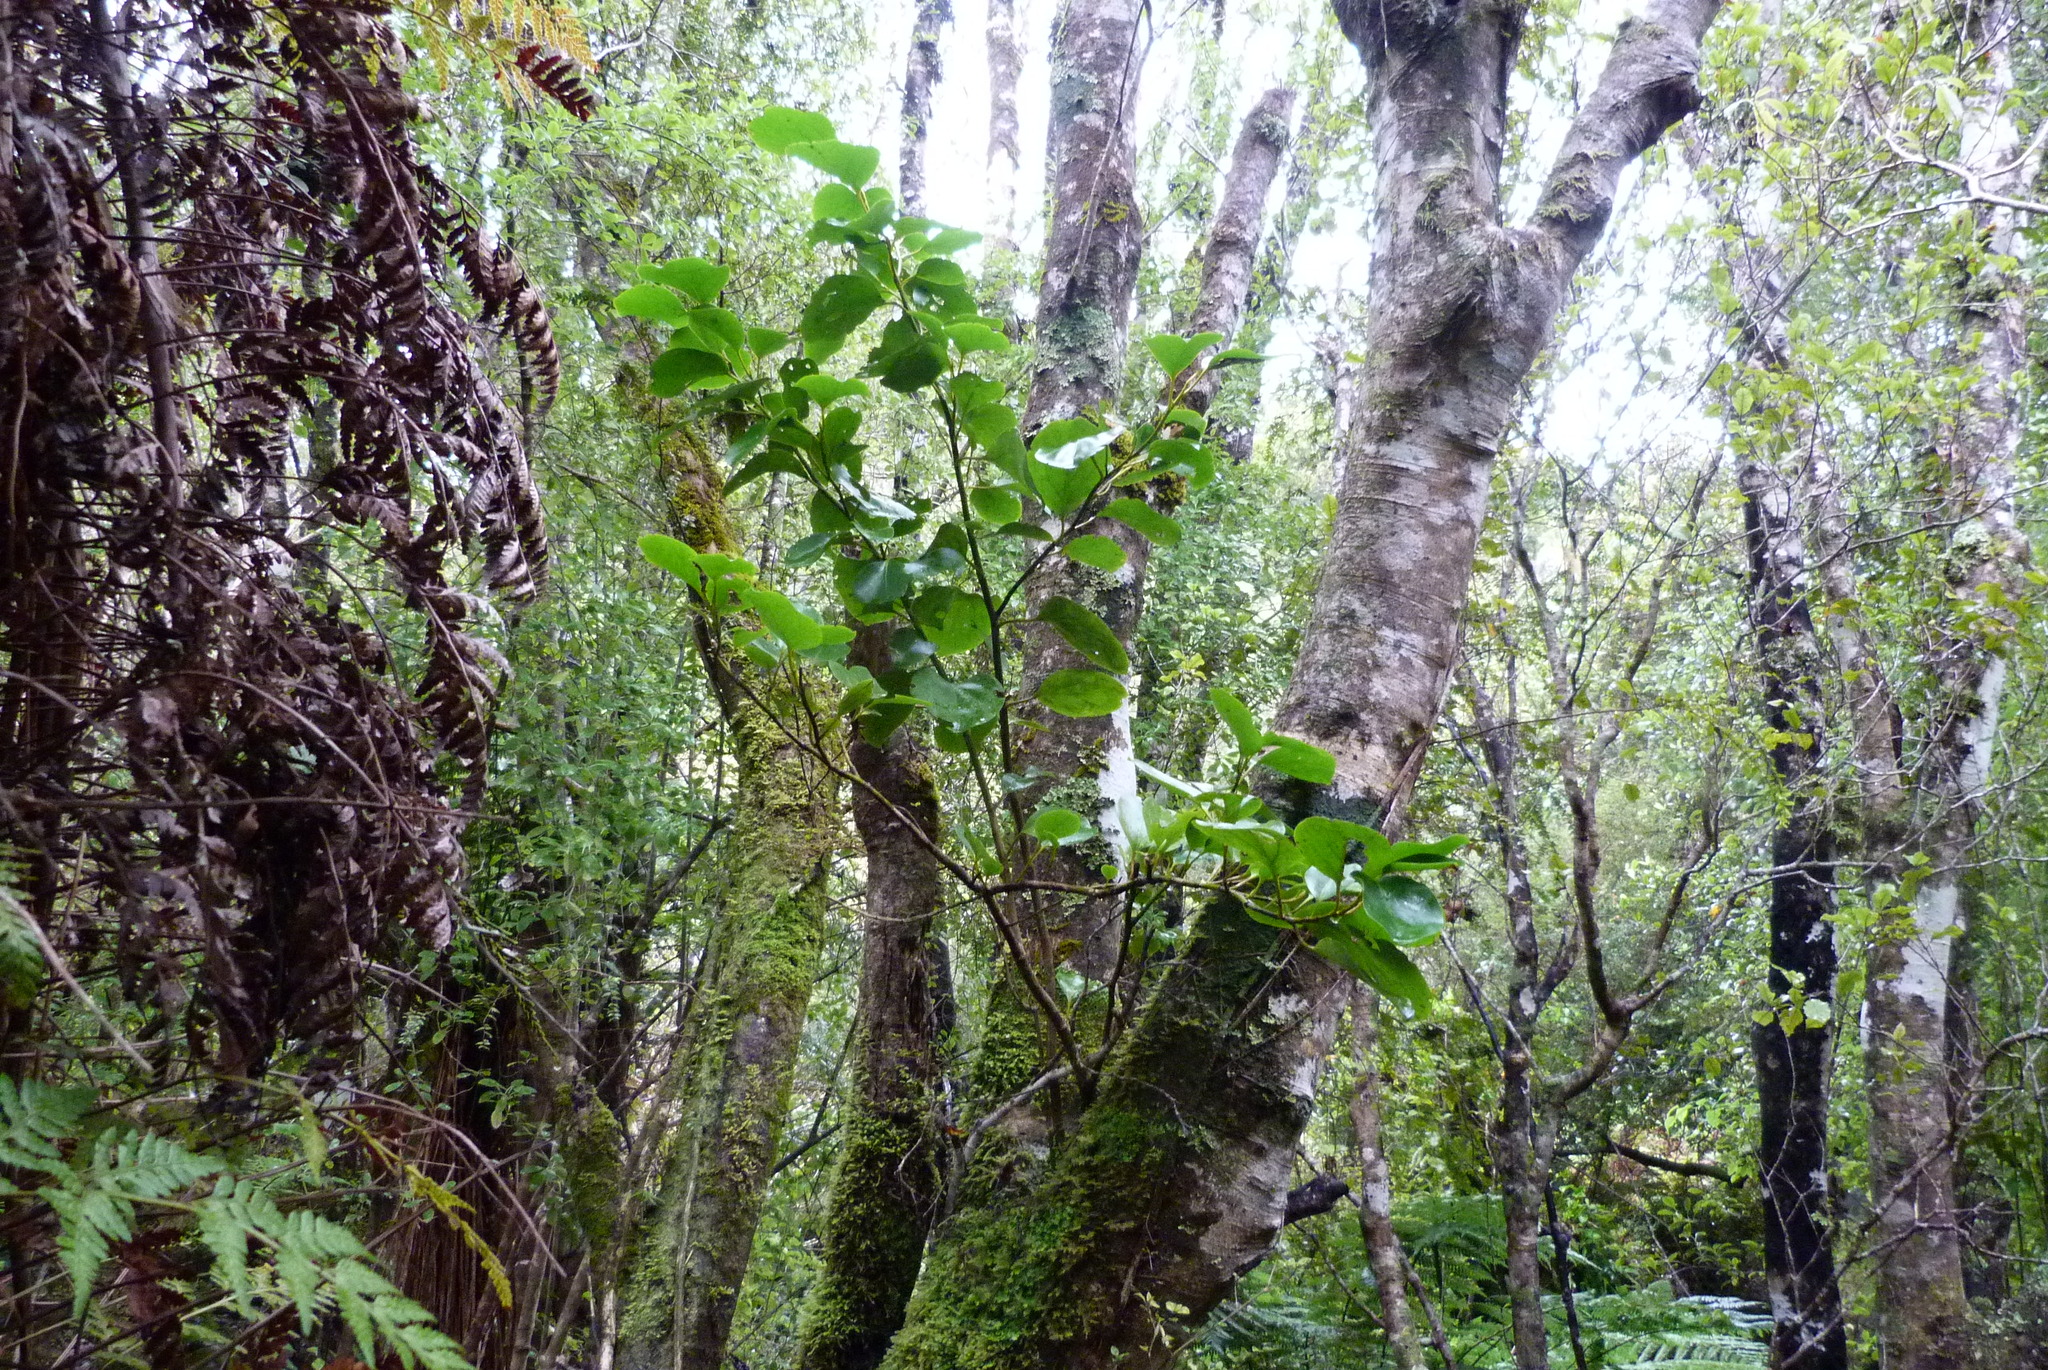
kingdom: Plantae
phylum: Tracheophyta
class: Magnoliopsida
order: Apiales
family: Griseliniaceae
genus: Griselinia
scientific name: Griselinia littoralis
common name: New zealand broadleaf
